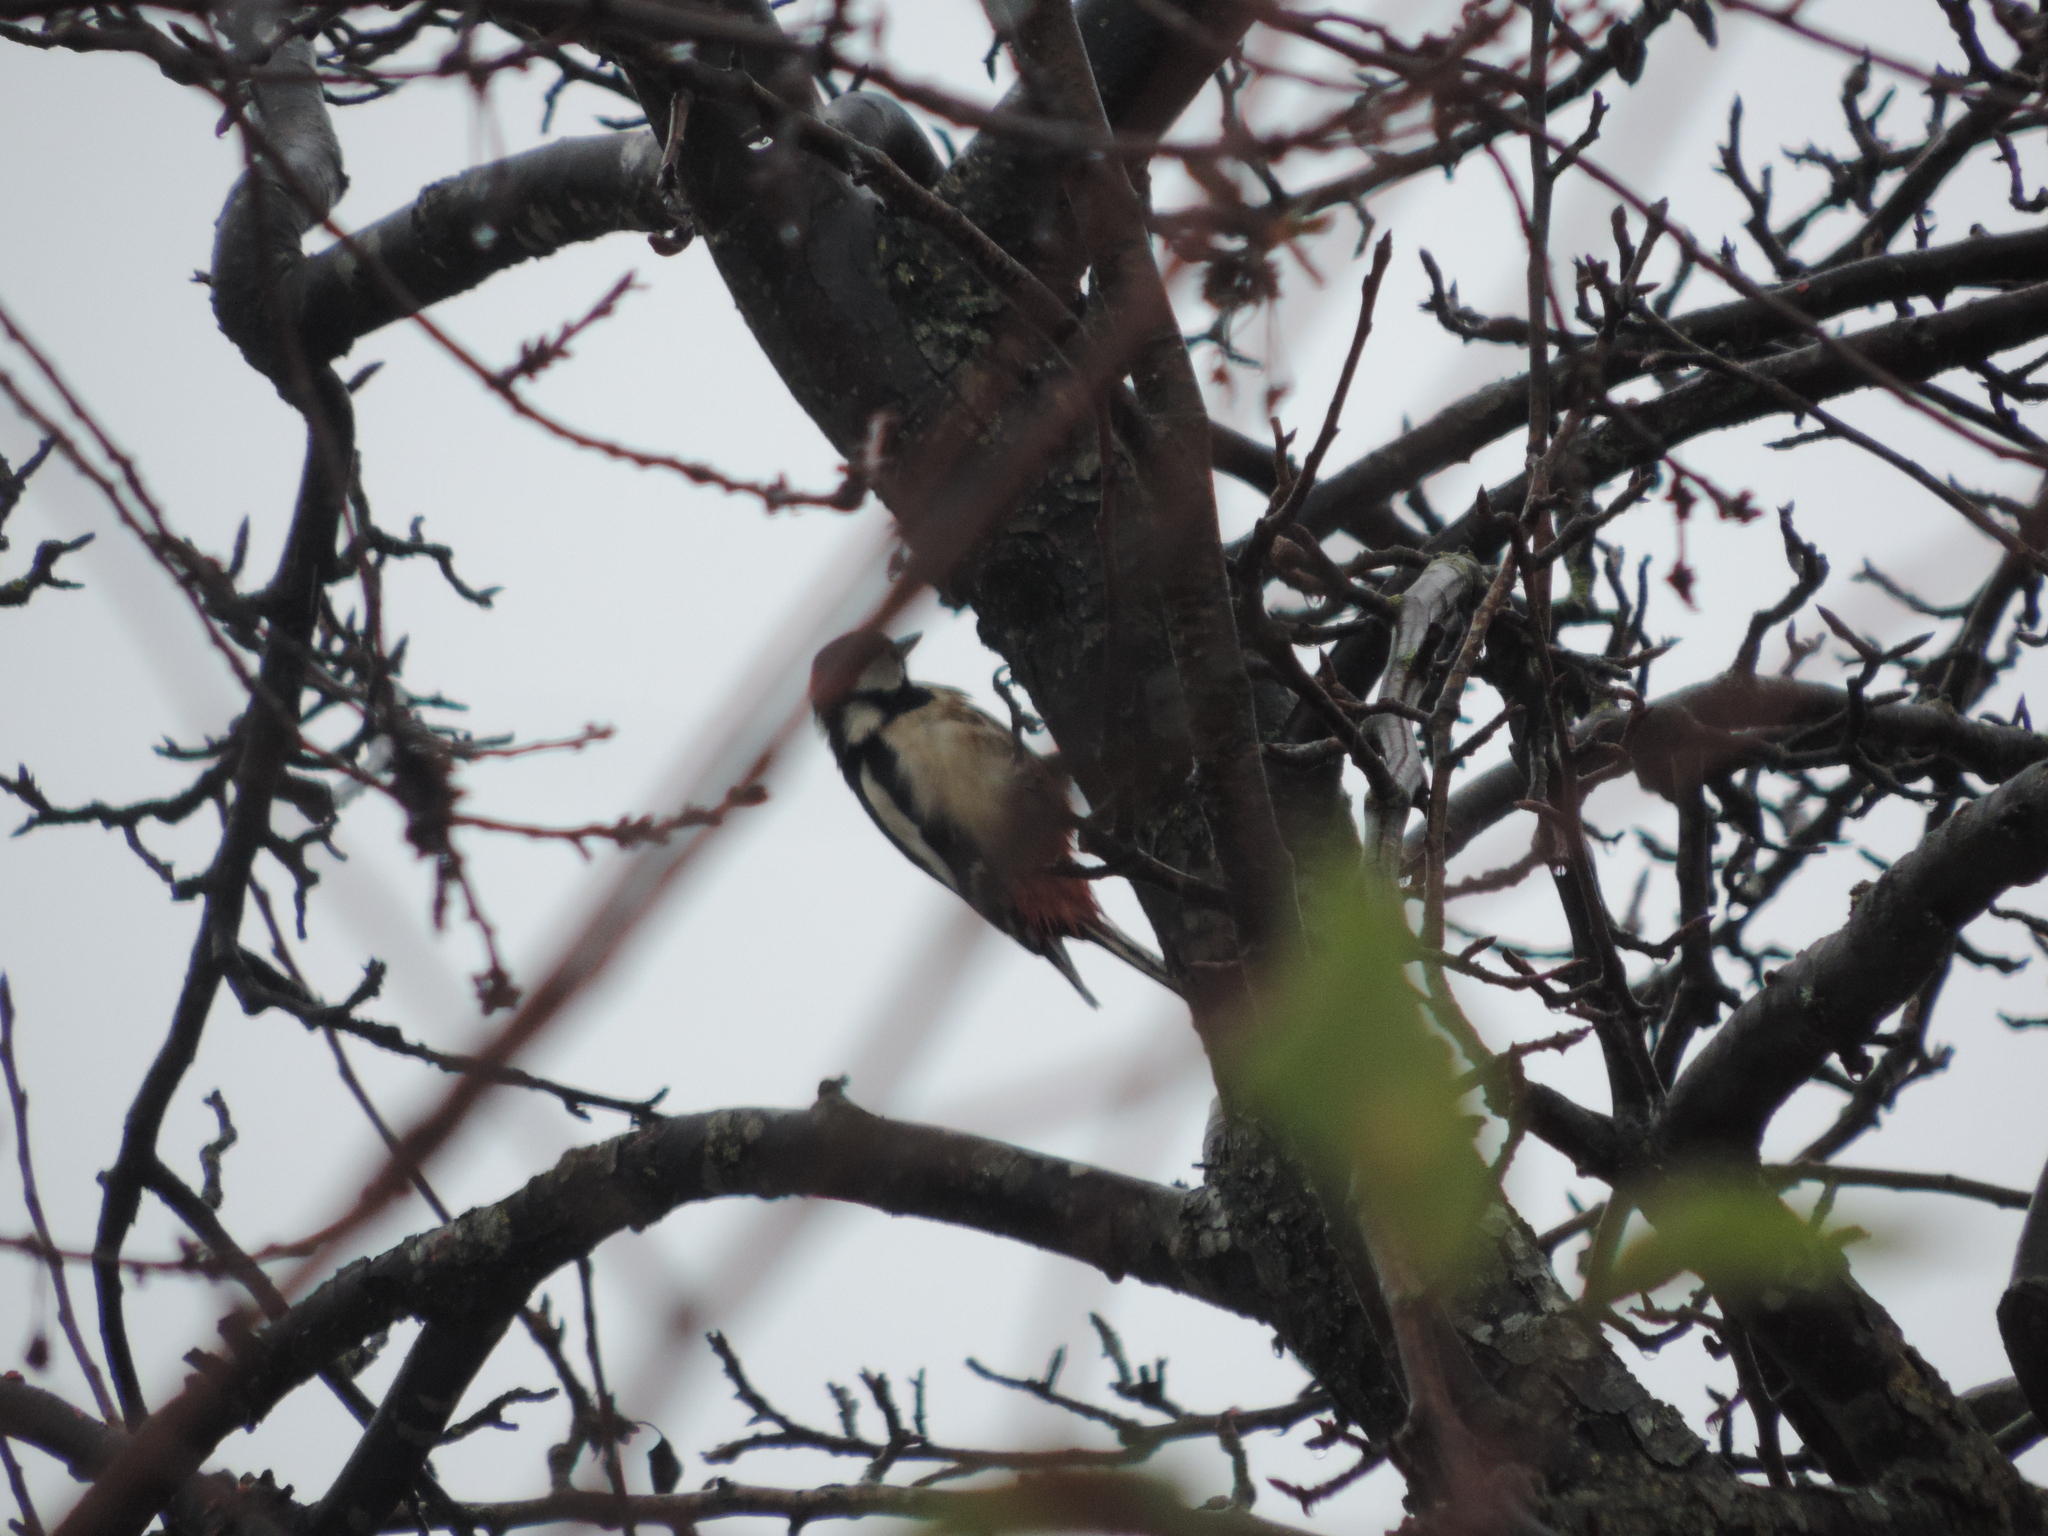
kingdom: Animalia
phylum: Chordata
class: Aves
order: Piciformes
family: Picidae
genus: Dendrocopos
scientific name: Dendrocopos major
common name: Great spotted woodpecker
